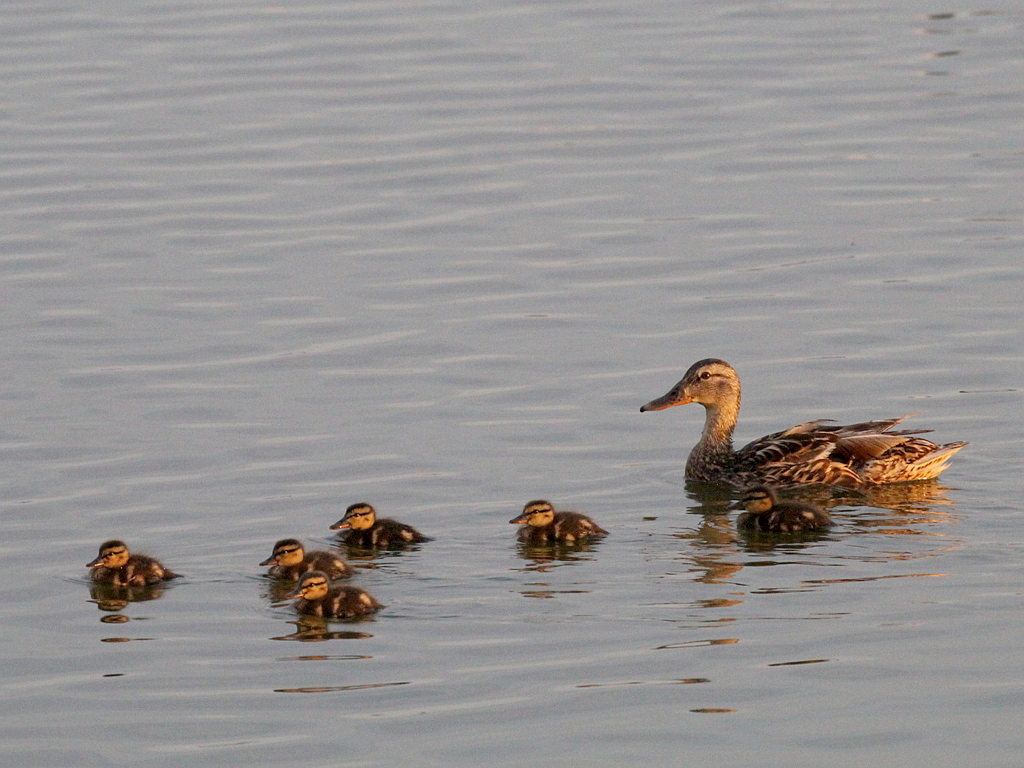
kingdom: Animalia
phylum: Chordata
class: Aves
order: Anseriformes
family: Anatidae
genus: Anas
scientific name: Anas platyrhynchos
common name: Mallard
